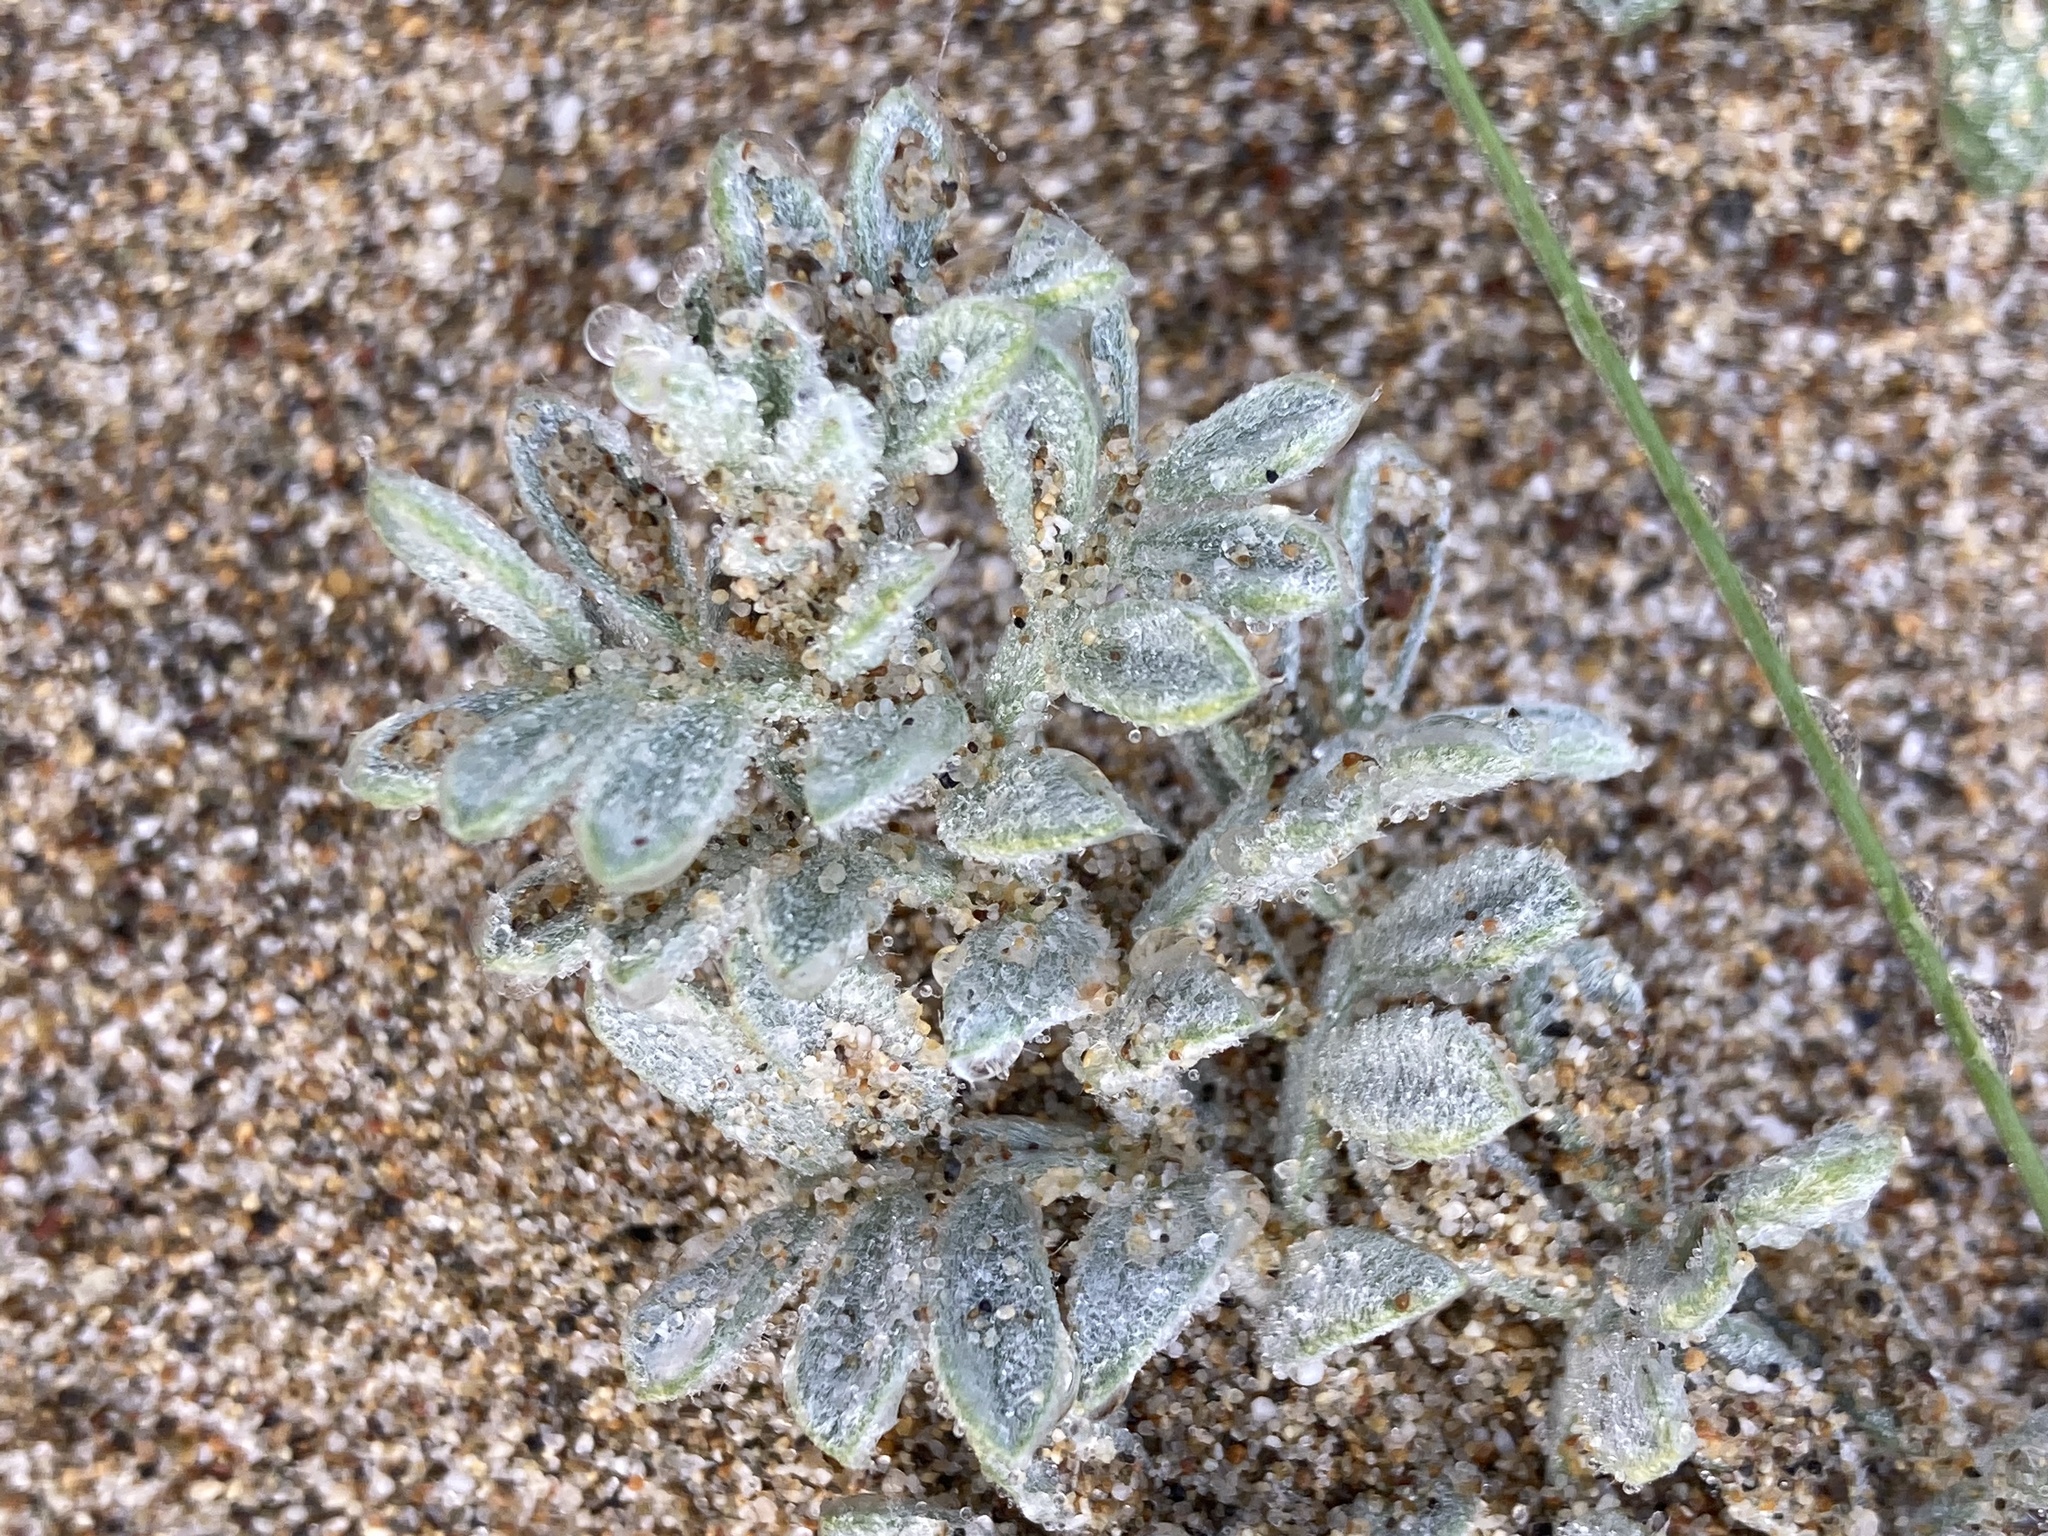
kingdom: Plantae
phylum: Tracheophyta
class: Magnoliopsida
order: Fabales
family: Fabaceae
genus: Lathyrus
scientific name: Lathyrus littoralis
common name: Dune sweet pea
